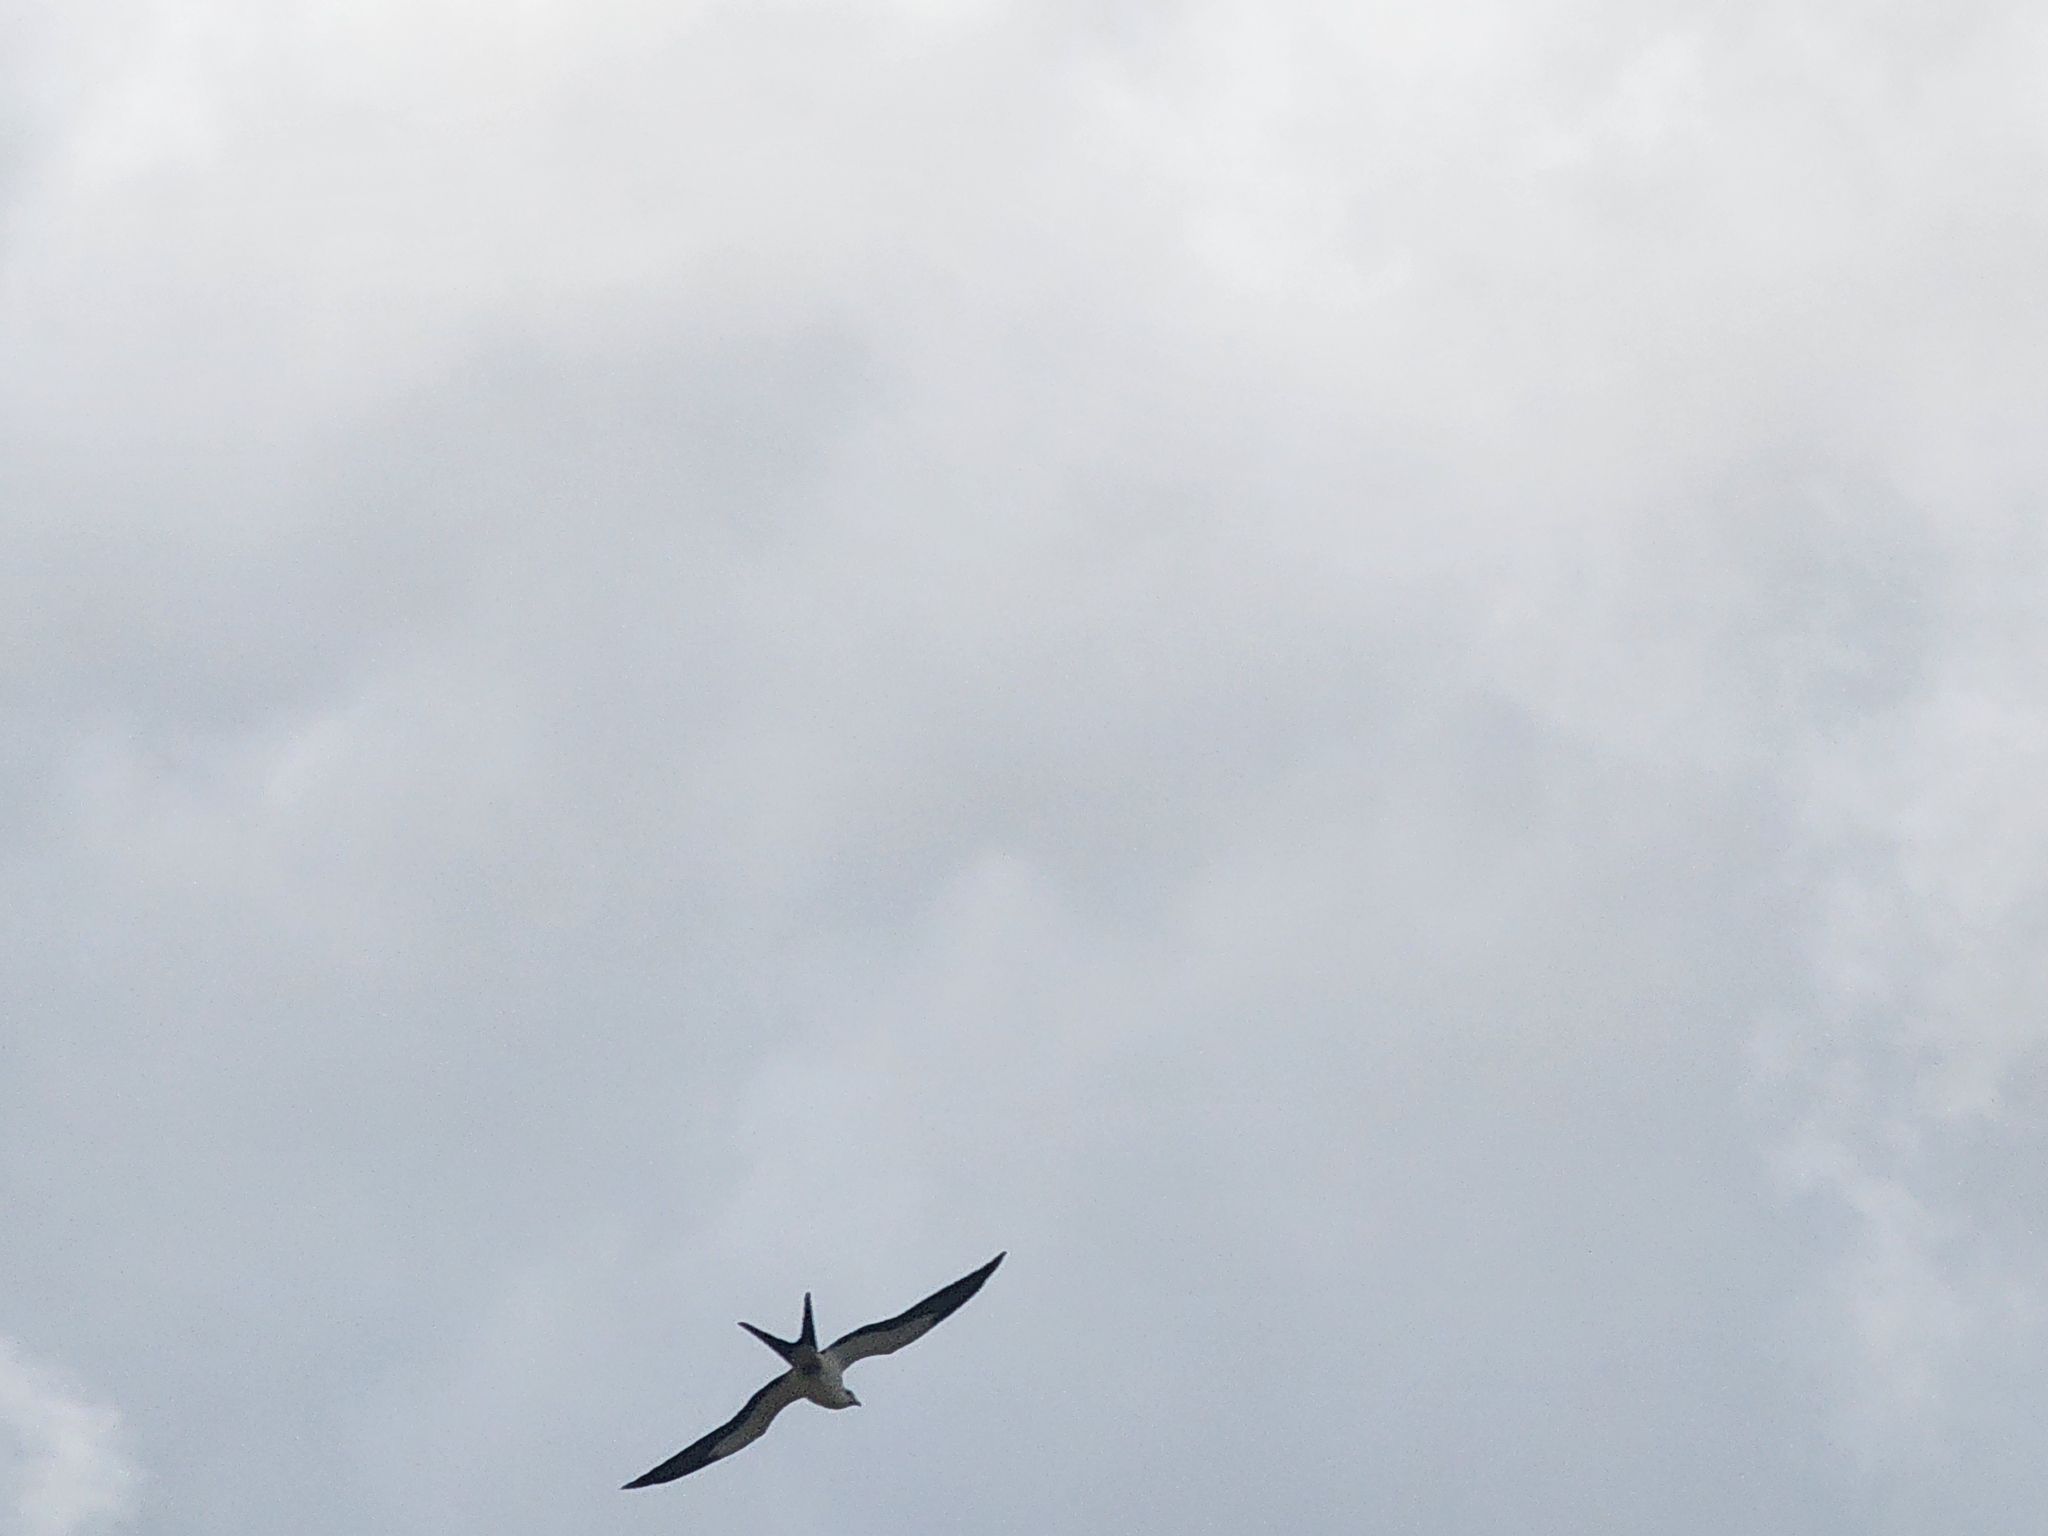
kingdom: Animalia
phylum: Chordata
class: Aves
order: Accipitriformes
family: Accipitridae
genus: Elanoides
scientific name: Elanoides forficatus
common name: Swallow-tailed kite
